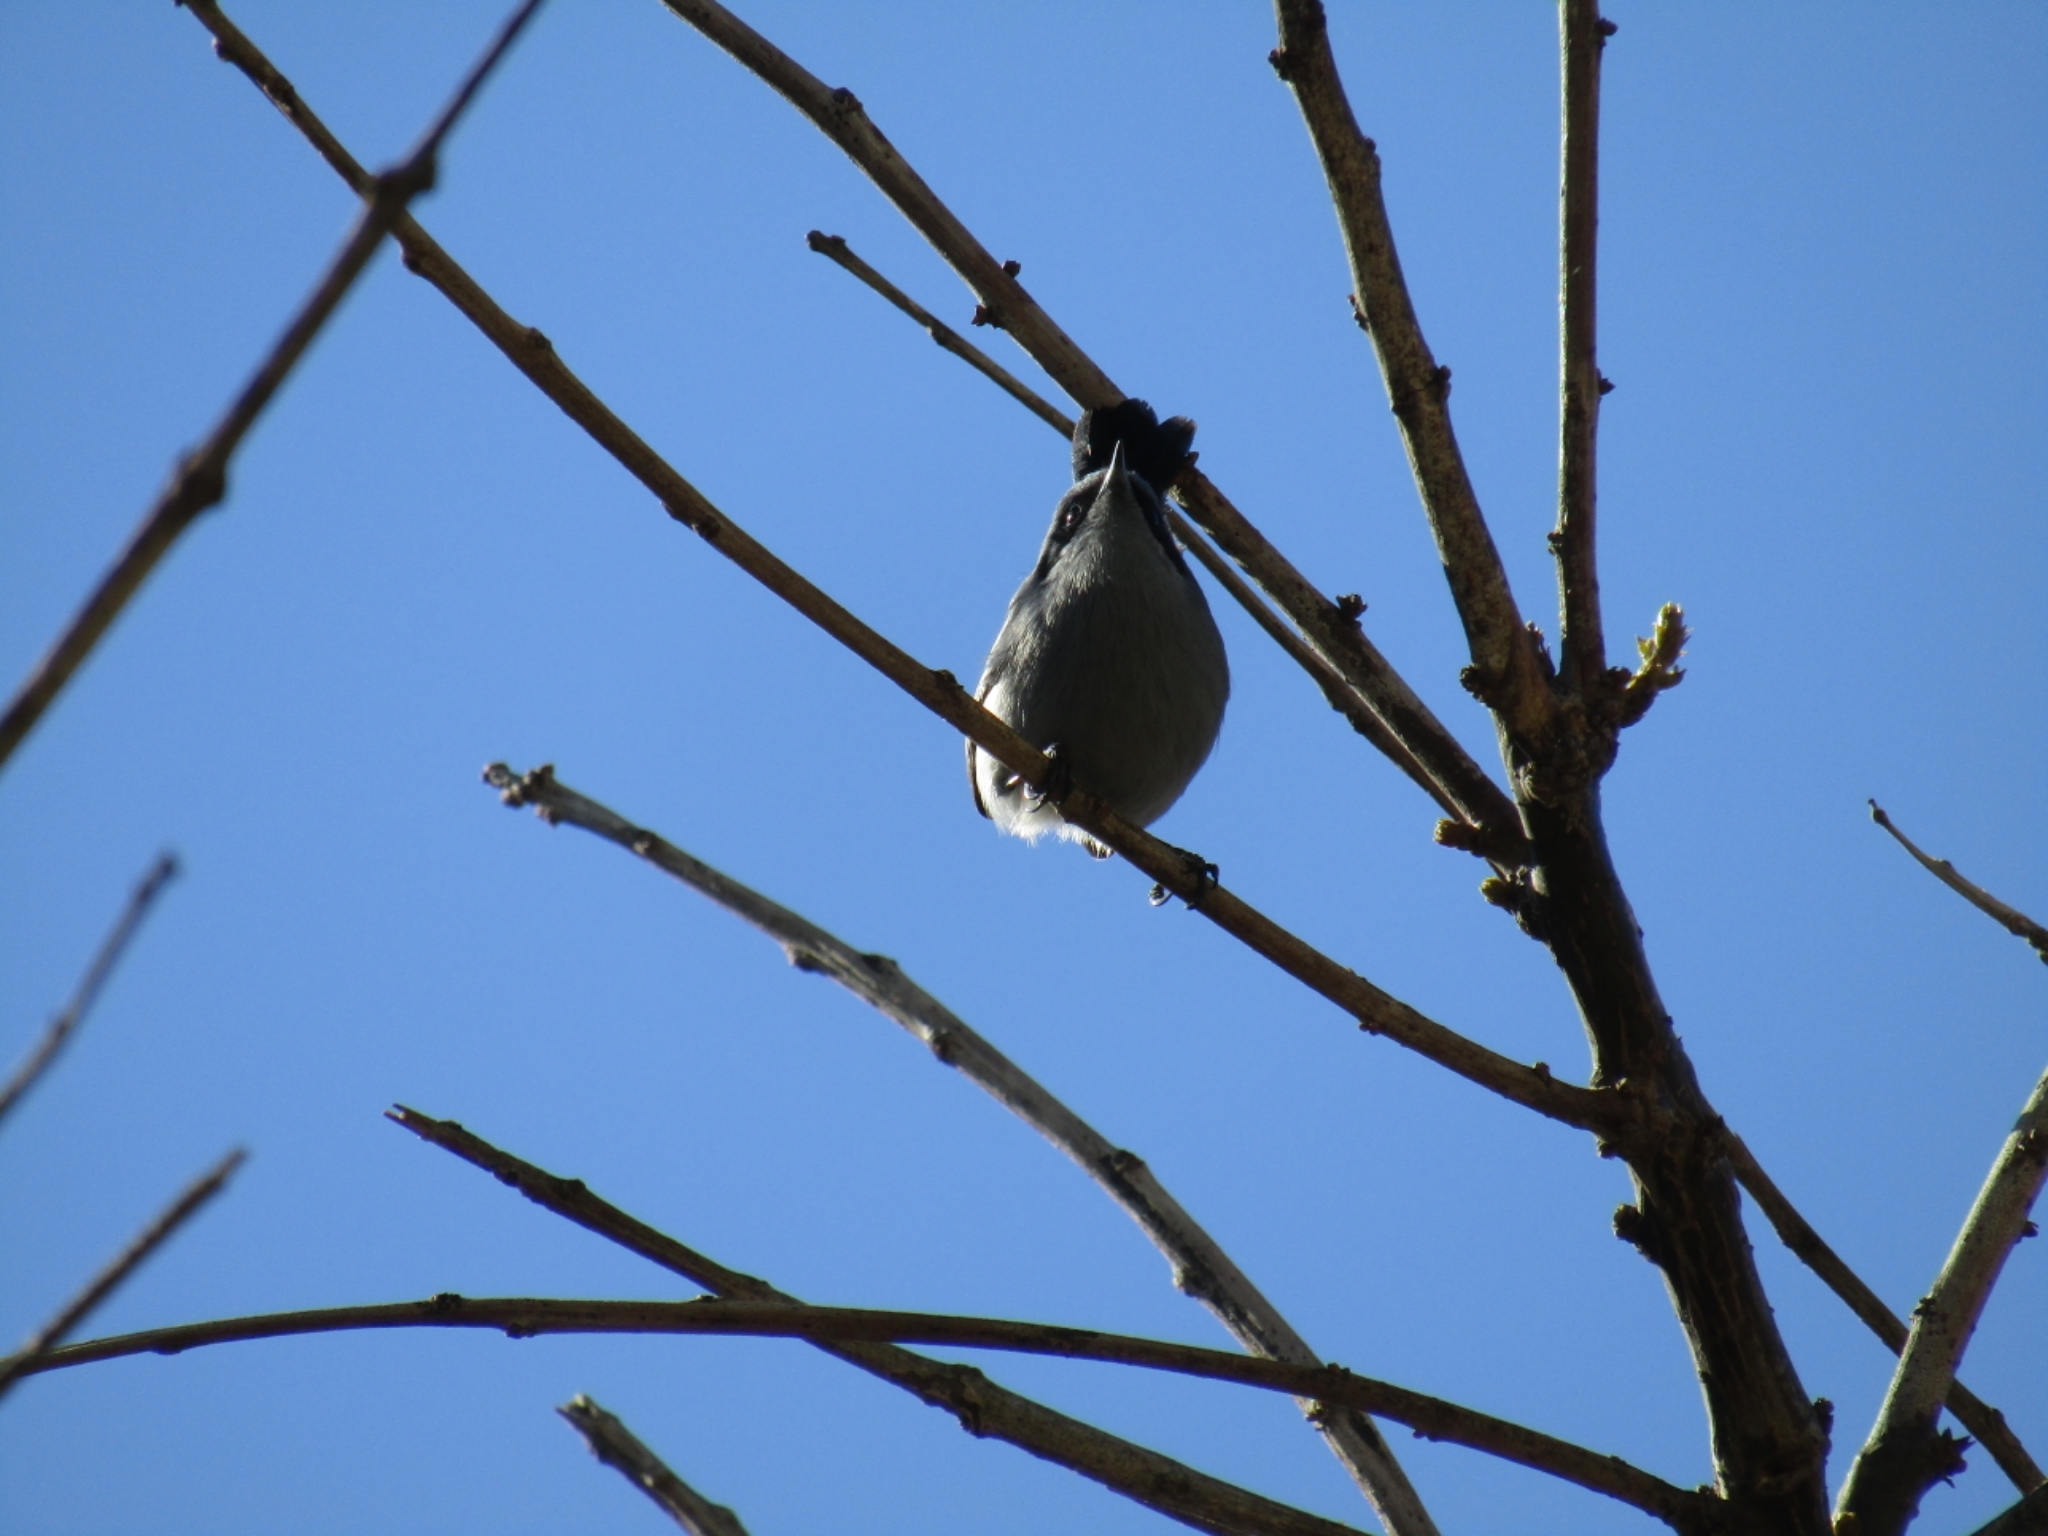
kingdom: Animalia
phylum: Chordata
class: Aves
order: Passeriformes
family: Polioptilidae
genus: Polioptila
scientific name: Polioptila dumicola
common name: Masked gnatcatcher
